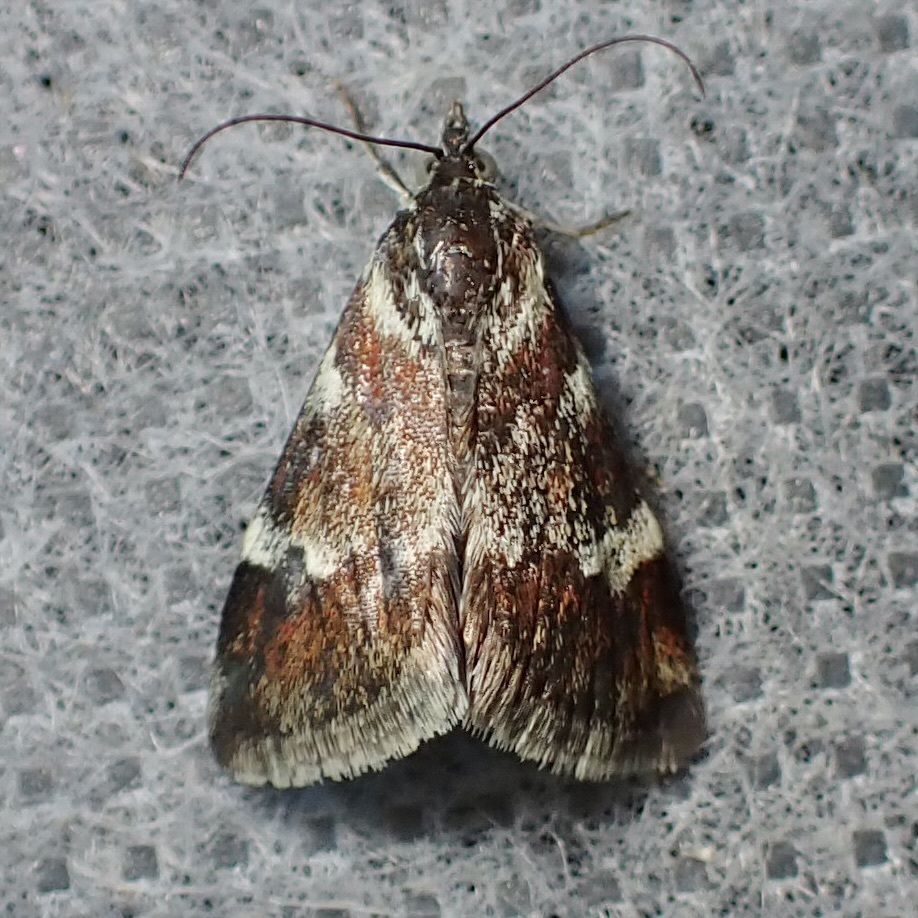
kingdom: Animalia
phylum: Arthropoda
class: Insecta
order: Lepidoptera
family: Crambidae
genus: Noctuelia
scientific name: Noctuelia Mimoschinia rufofascialis
